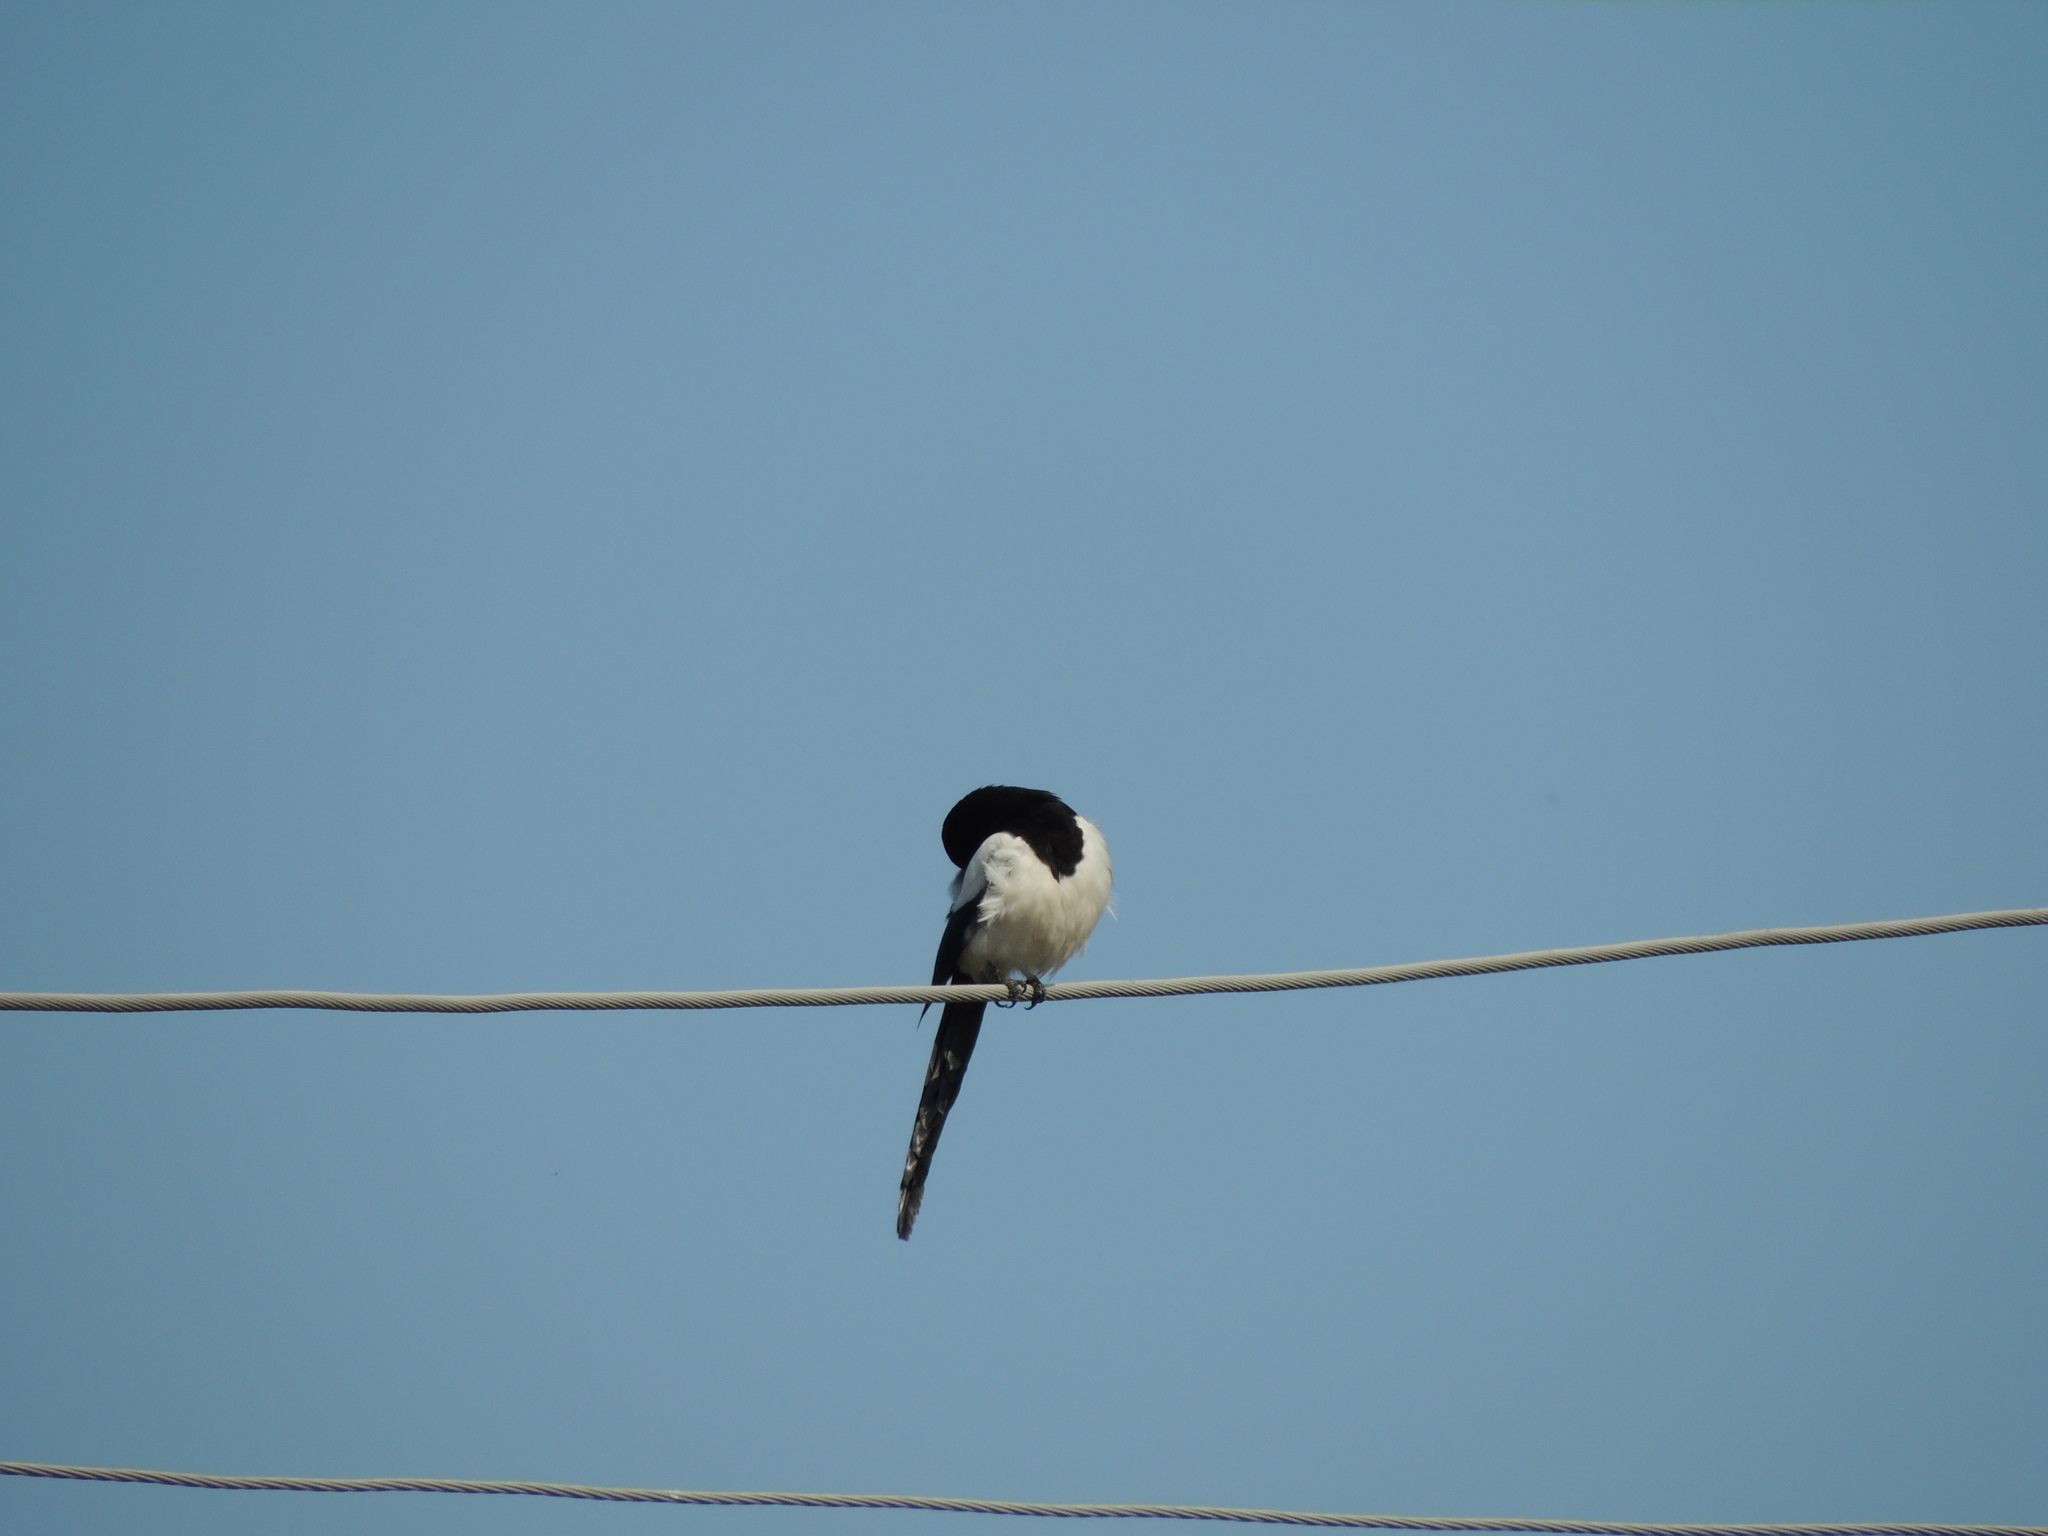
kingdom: Animalia
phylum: Chordata
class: Aves
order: Passeriformes
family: Corvidae
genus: Pica
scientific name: Pica pica
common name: Eurasian magpie
